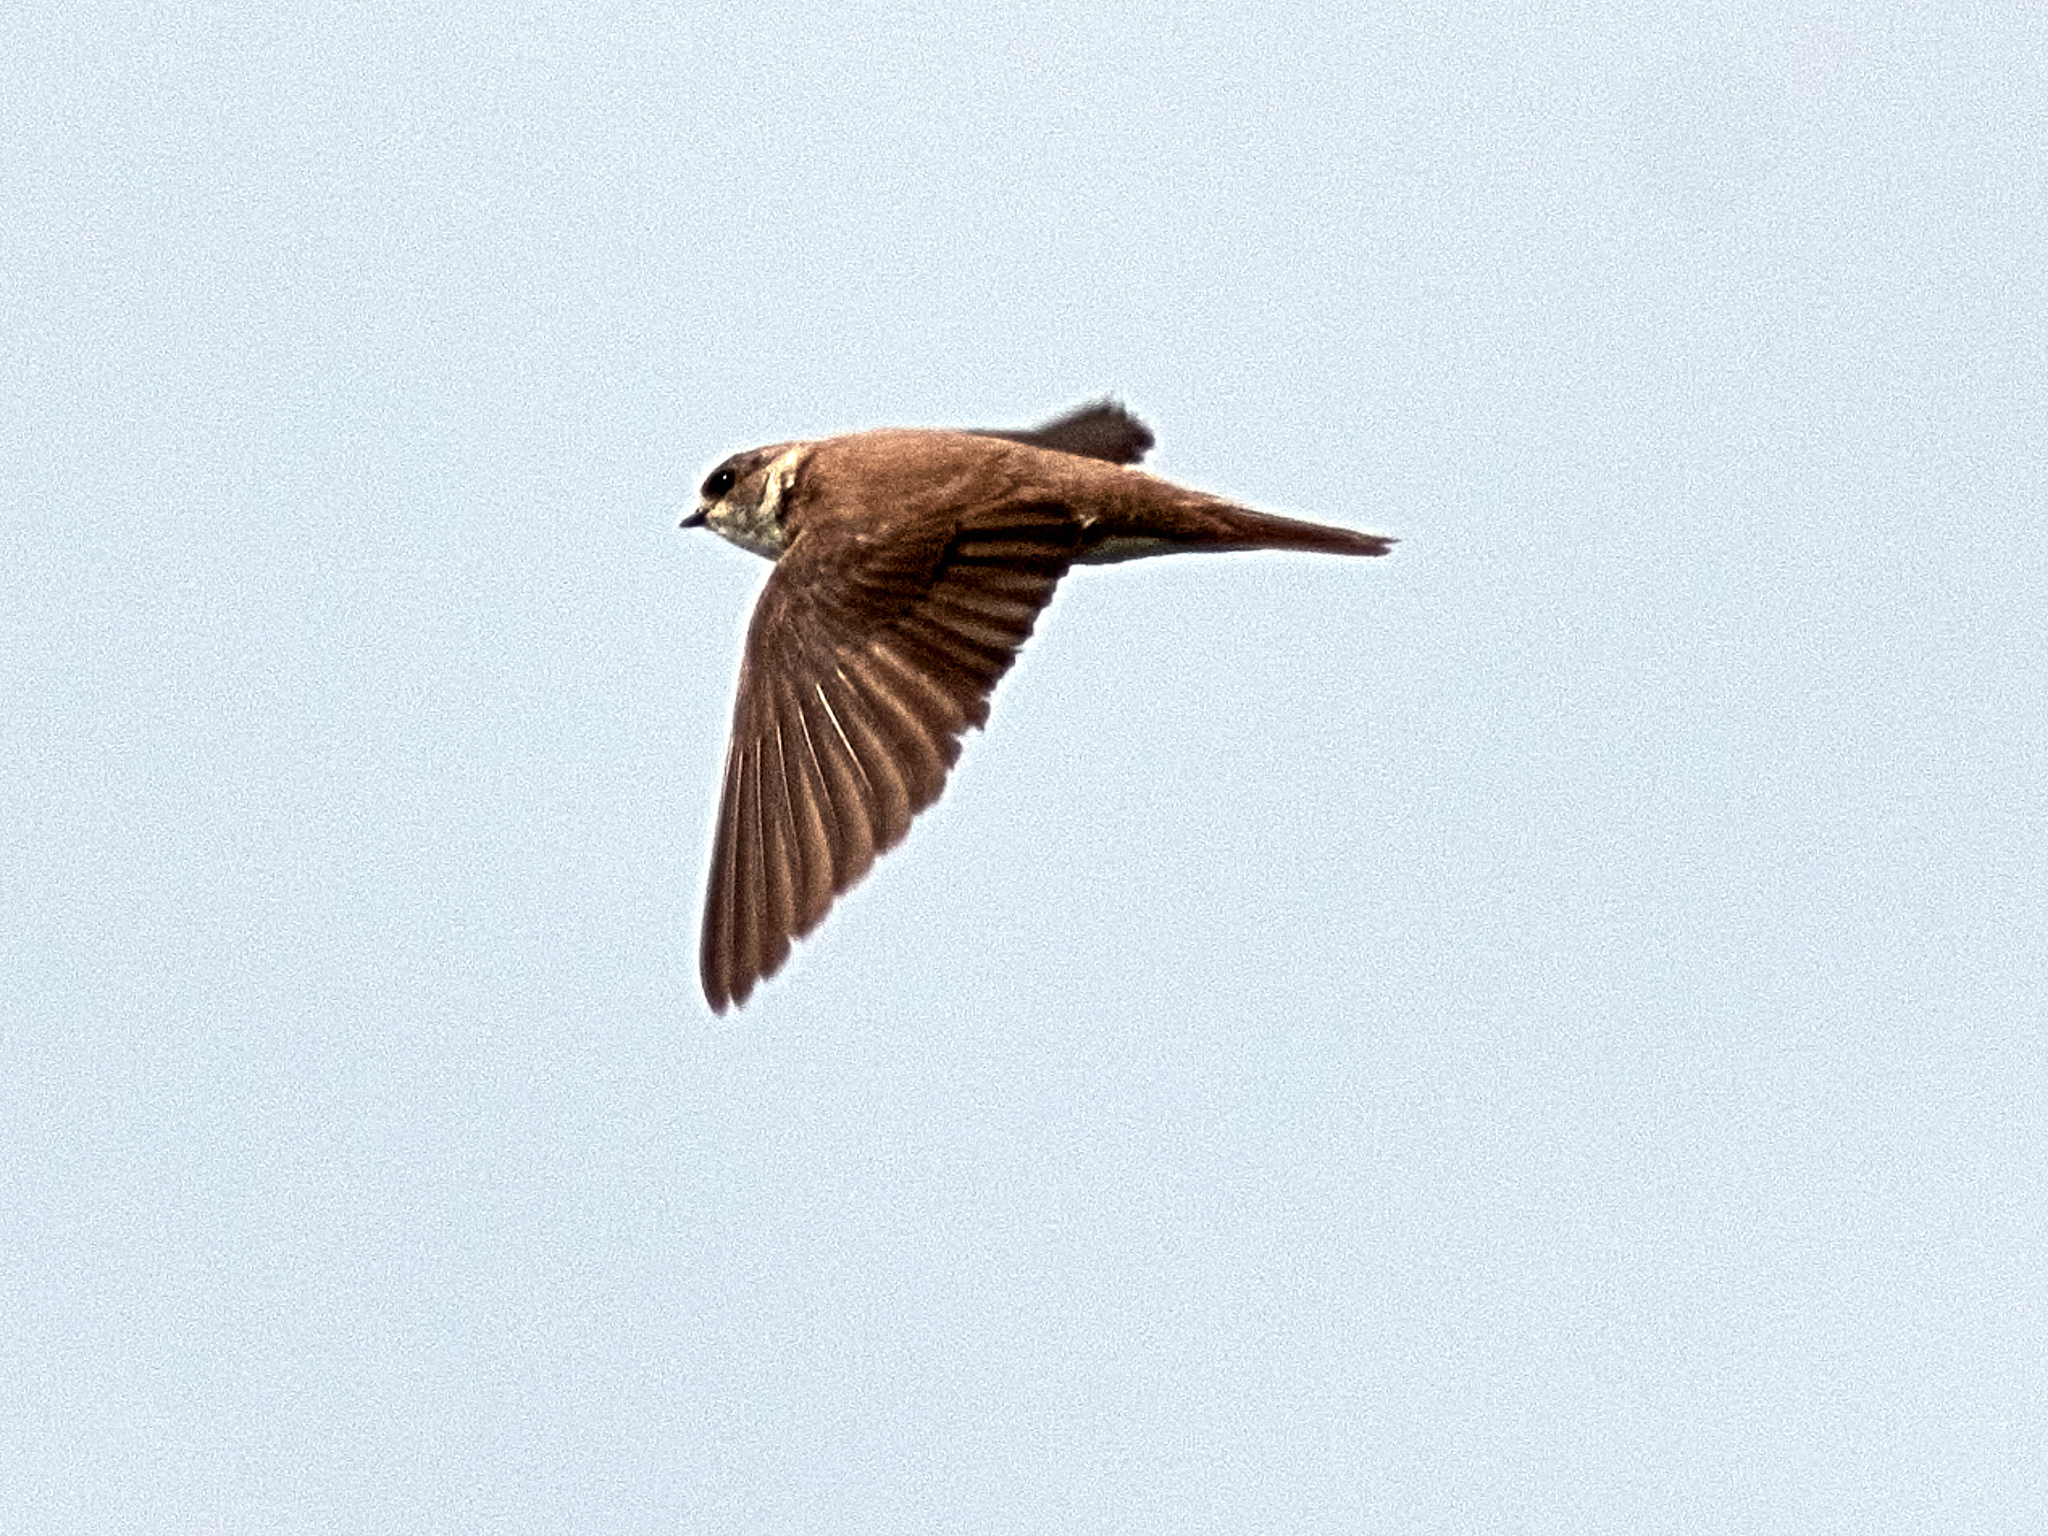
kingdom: Animalia
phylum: Chordata
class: Aves
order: Passeriformes
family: Hirundinidae
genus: Riparia
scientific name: Riparia riparia
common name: Sand martin
